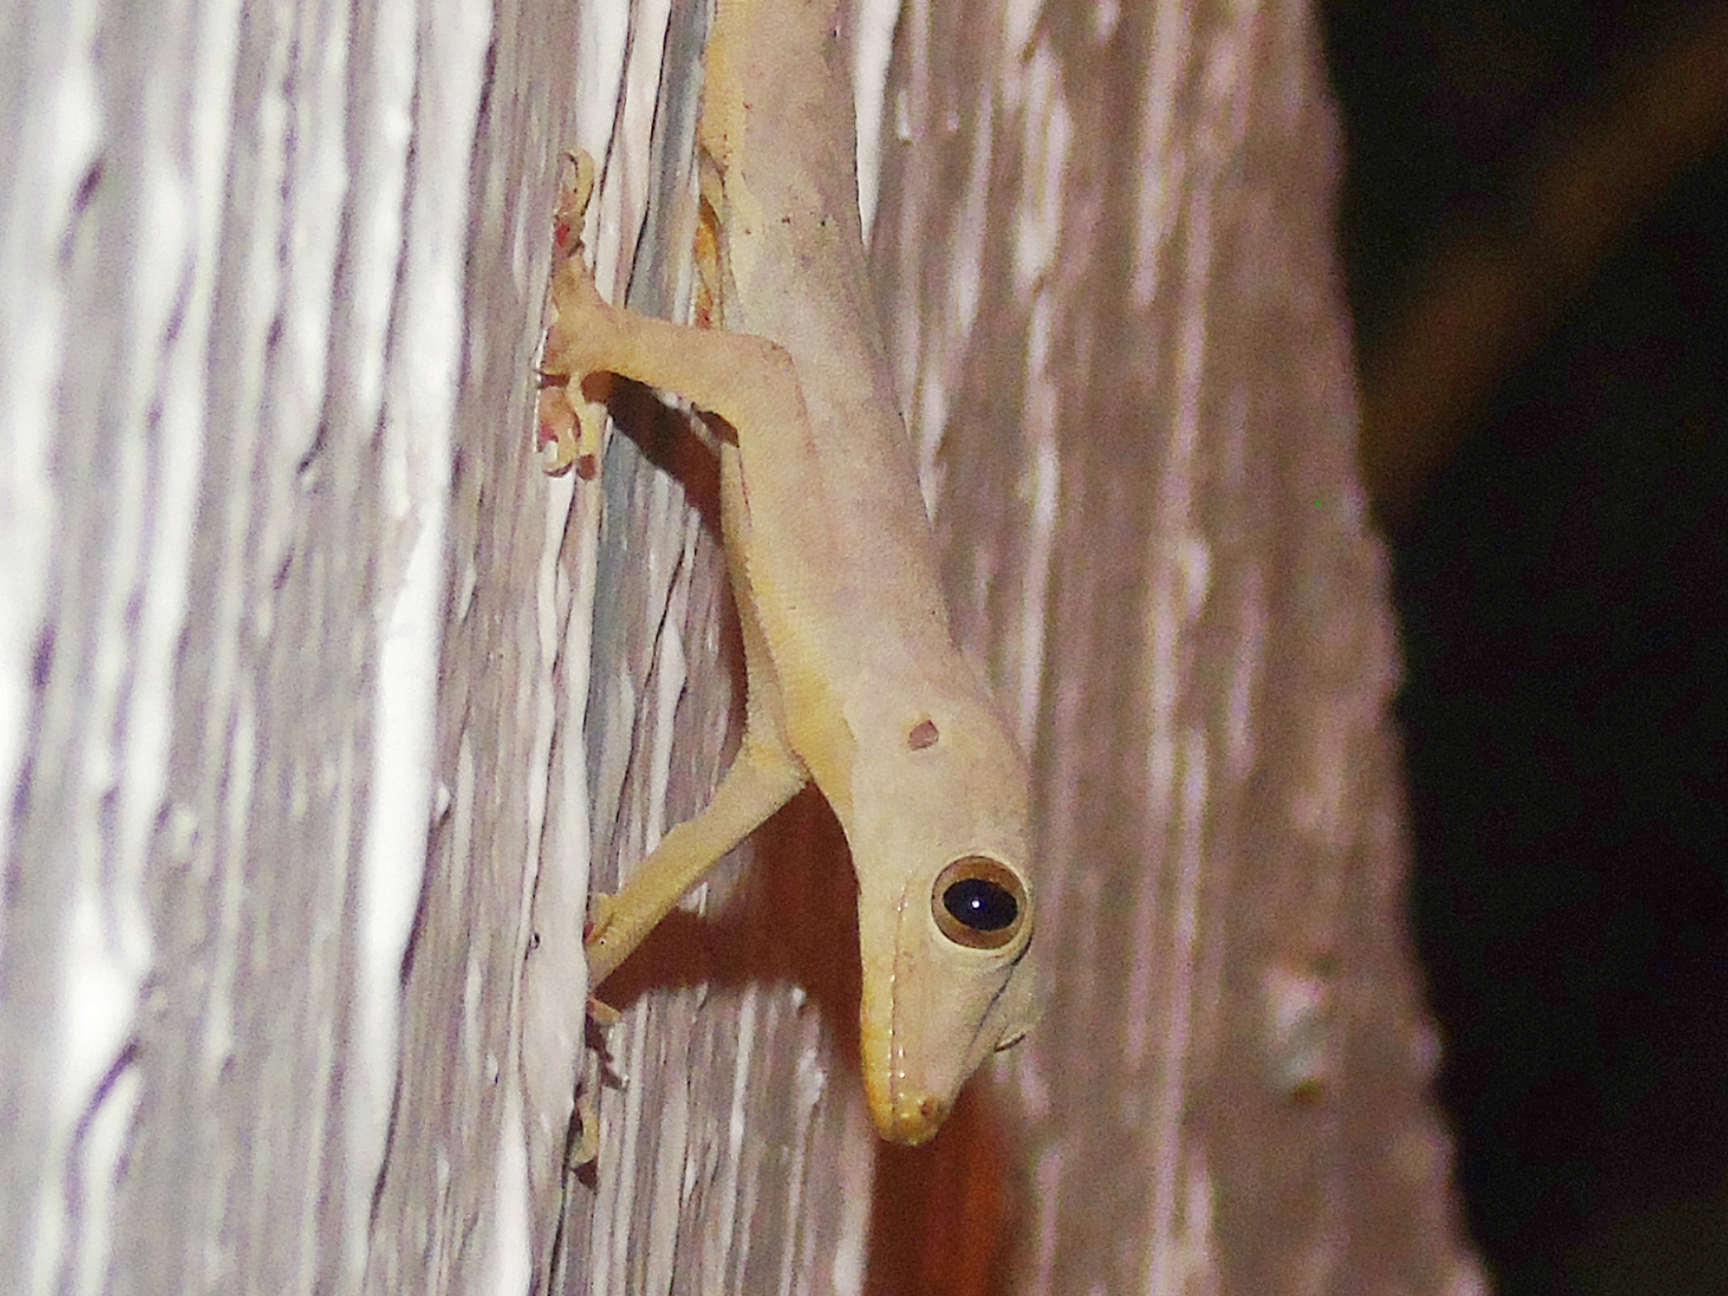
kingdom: Animalia
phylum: Chordata
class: Squamata
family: Gekkonidae
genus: Hemidactylus
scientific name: Hemidactylus flaviviridis
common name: Northern house gecko
